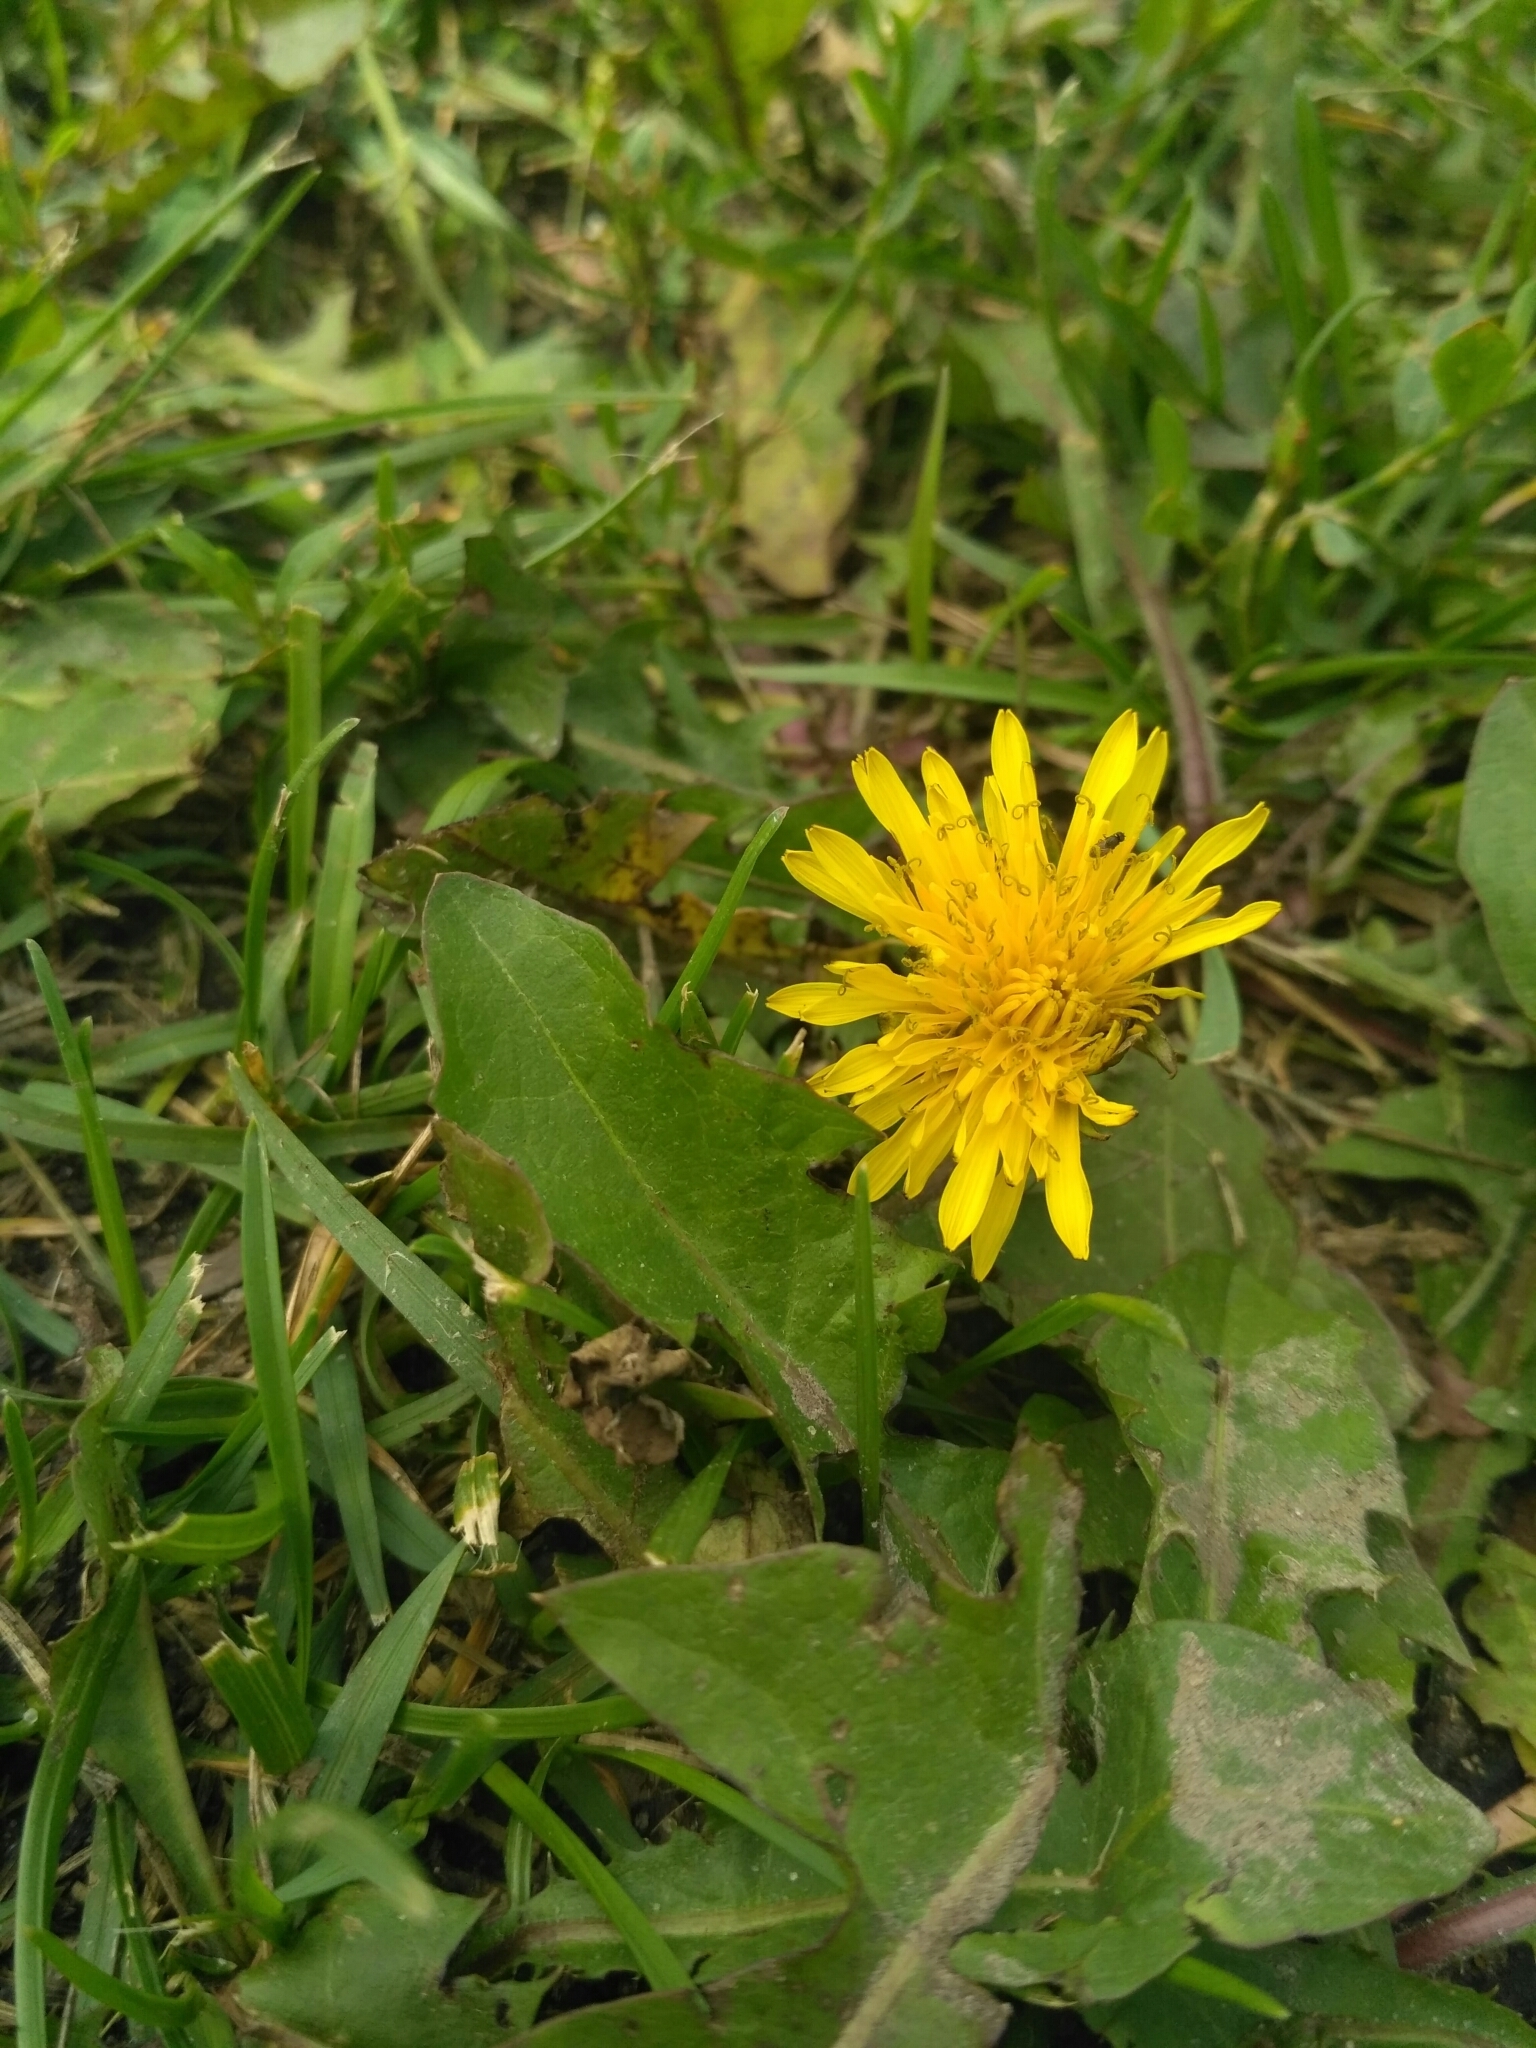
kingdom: Plantae
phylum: Tracheophyta
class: Magnoliopsida
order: Asterales
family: Asteraceae
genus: Taraxacum
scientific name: Taraxacum officinale
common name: Common dandelion
